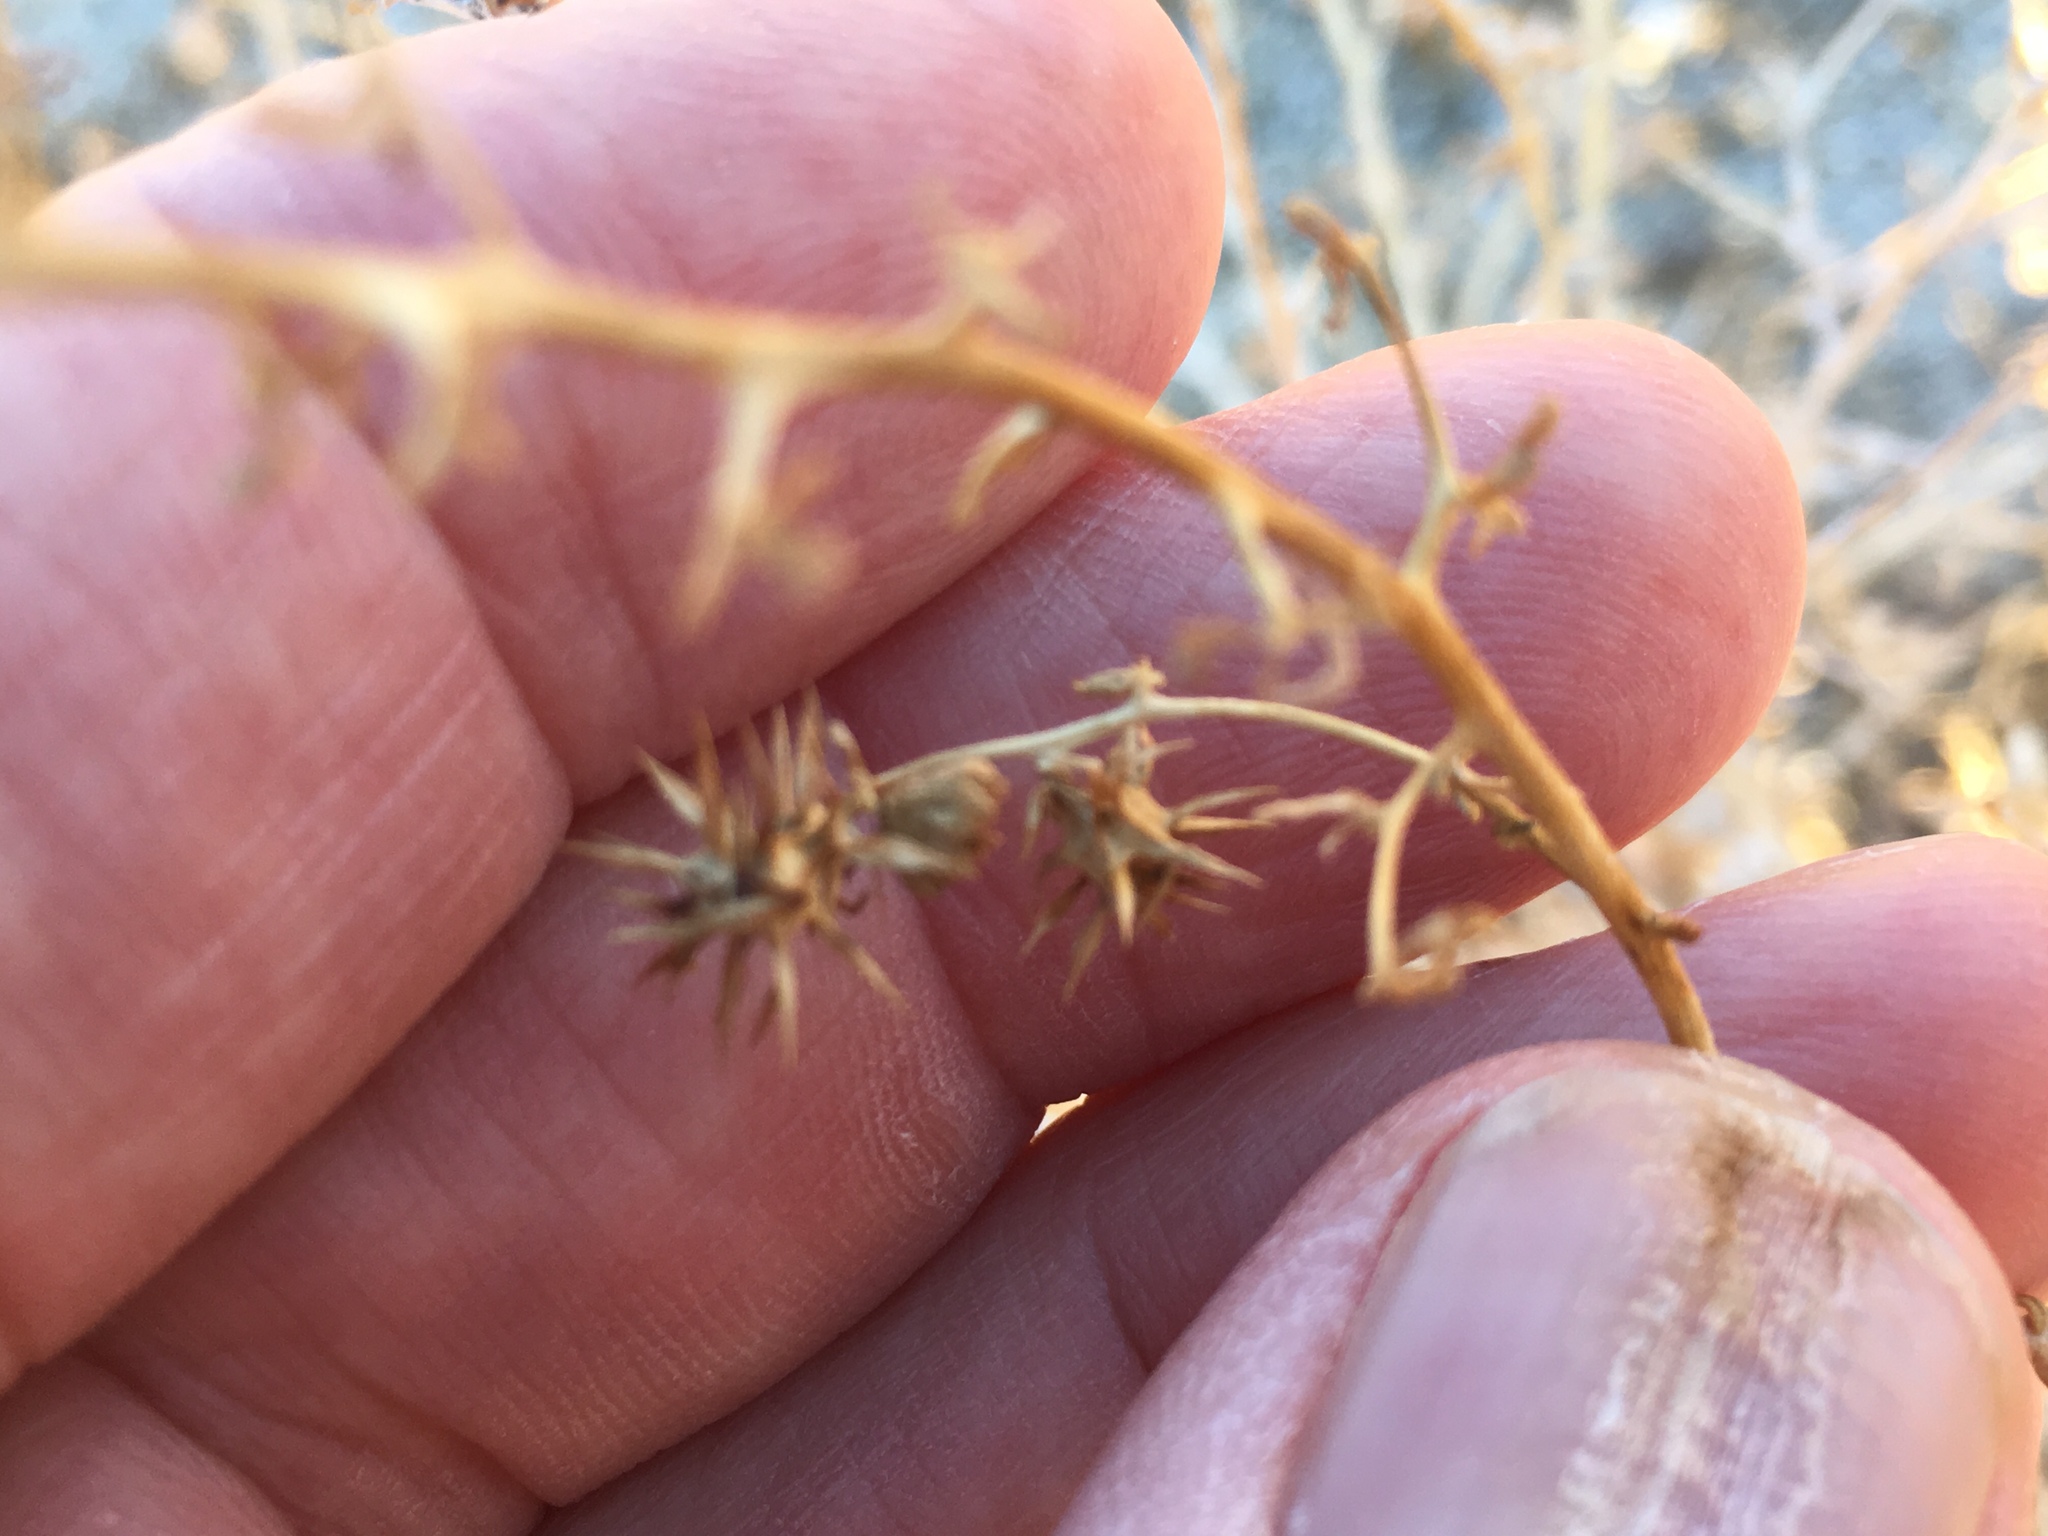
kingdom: Plantae
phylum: Tracheophyta
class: Magnoliopsida
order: Asterales
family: Asteraceae
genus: Ambrosia
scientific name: Ambrosia dumosa
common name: Bur-sage
